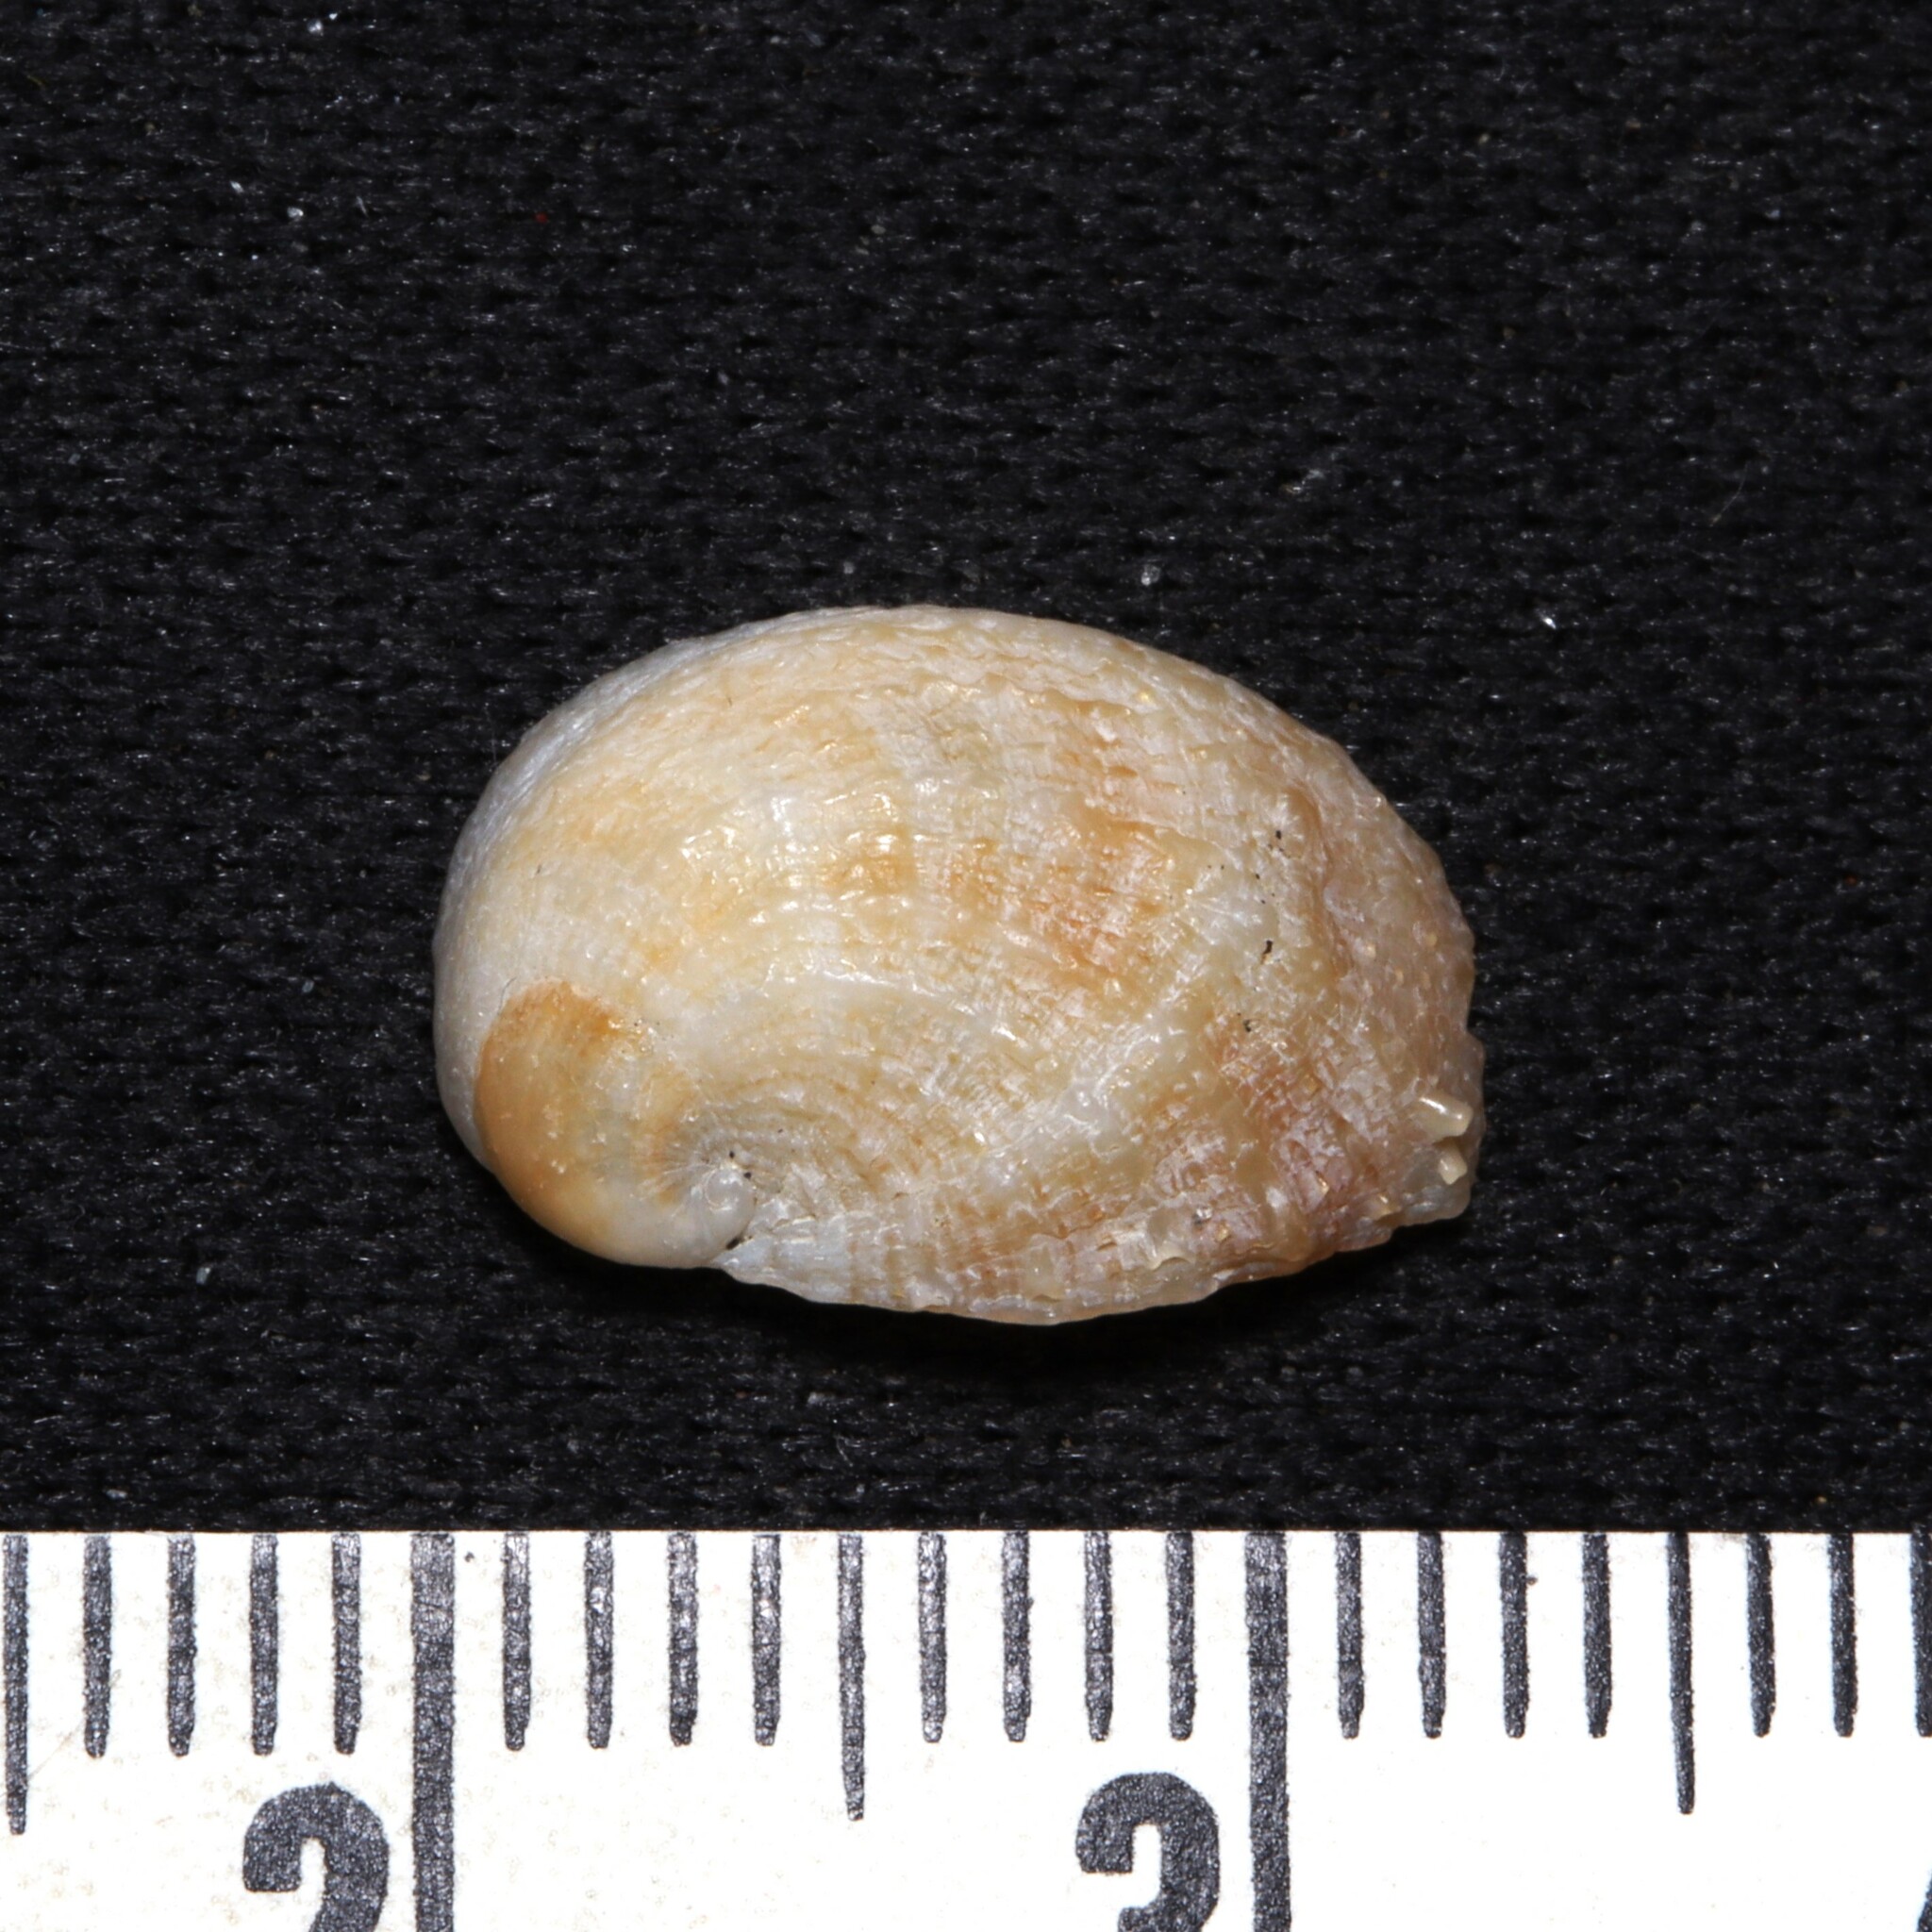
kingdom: Animalia
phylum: Mollusca
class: Gastropoda
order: Littorinimorpha
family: Calyptraeidae
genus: Bostrycapulus
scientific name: Bostrycapulus aculeatus
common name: Spiny slippersnail
